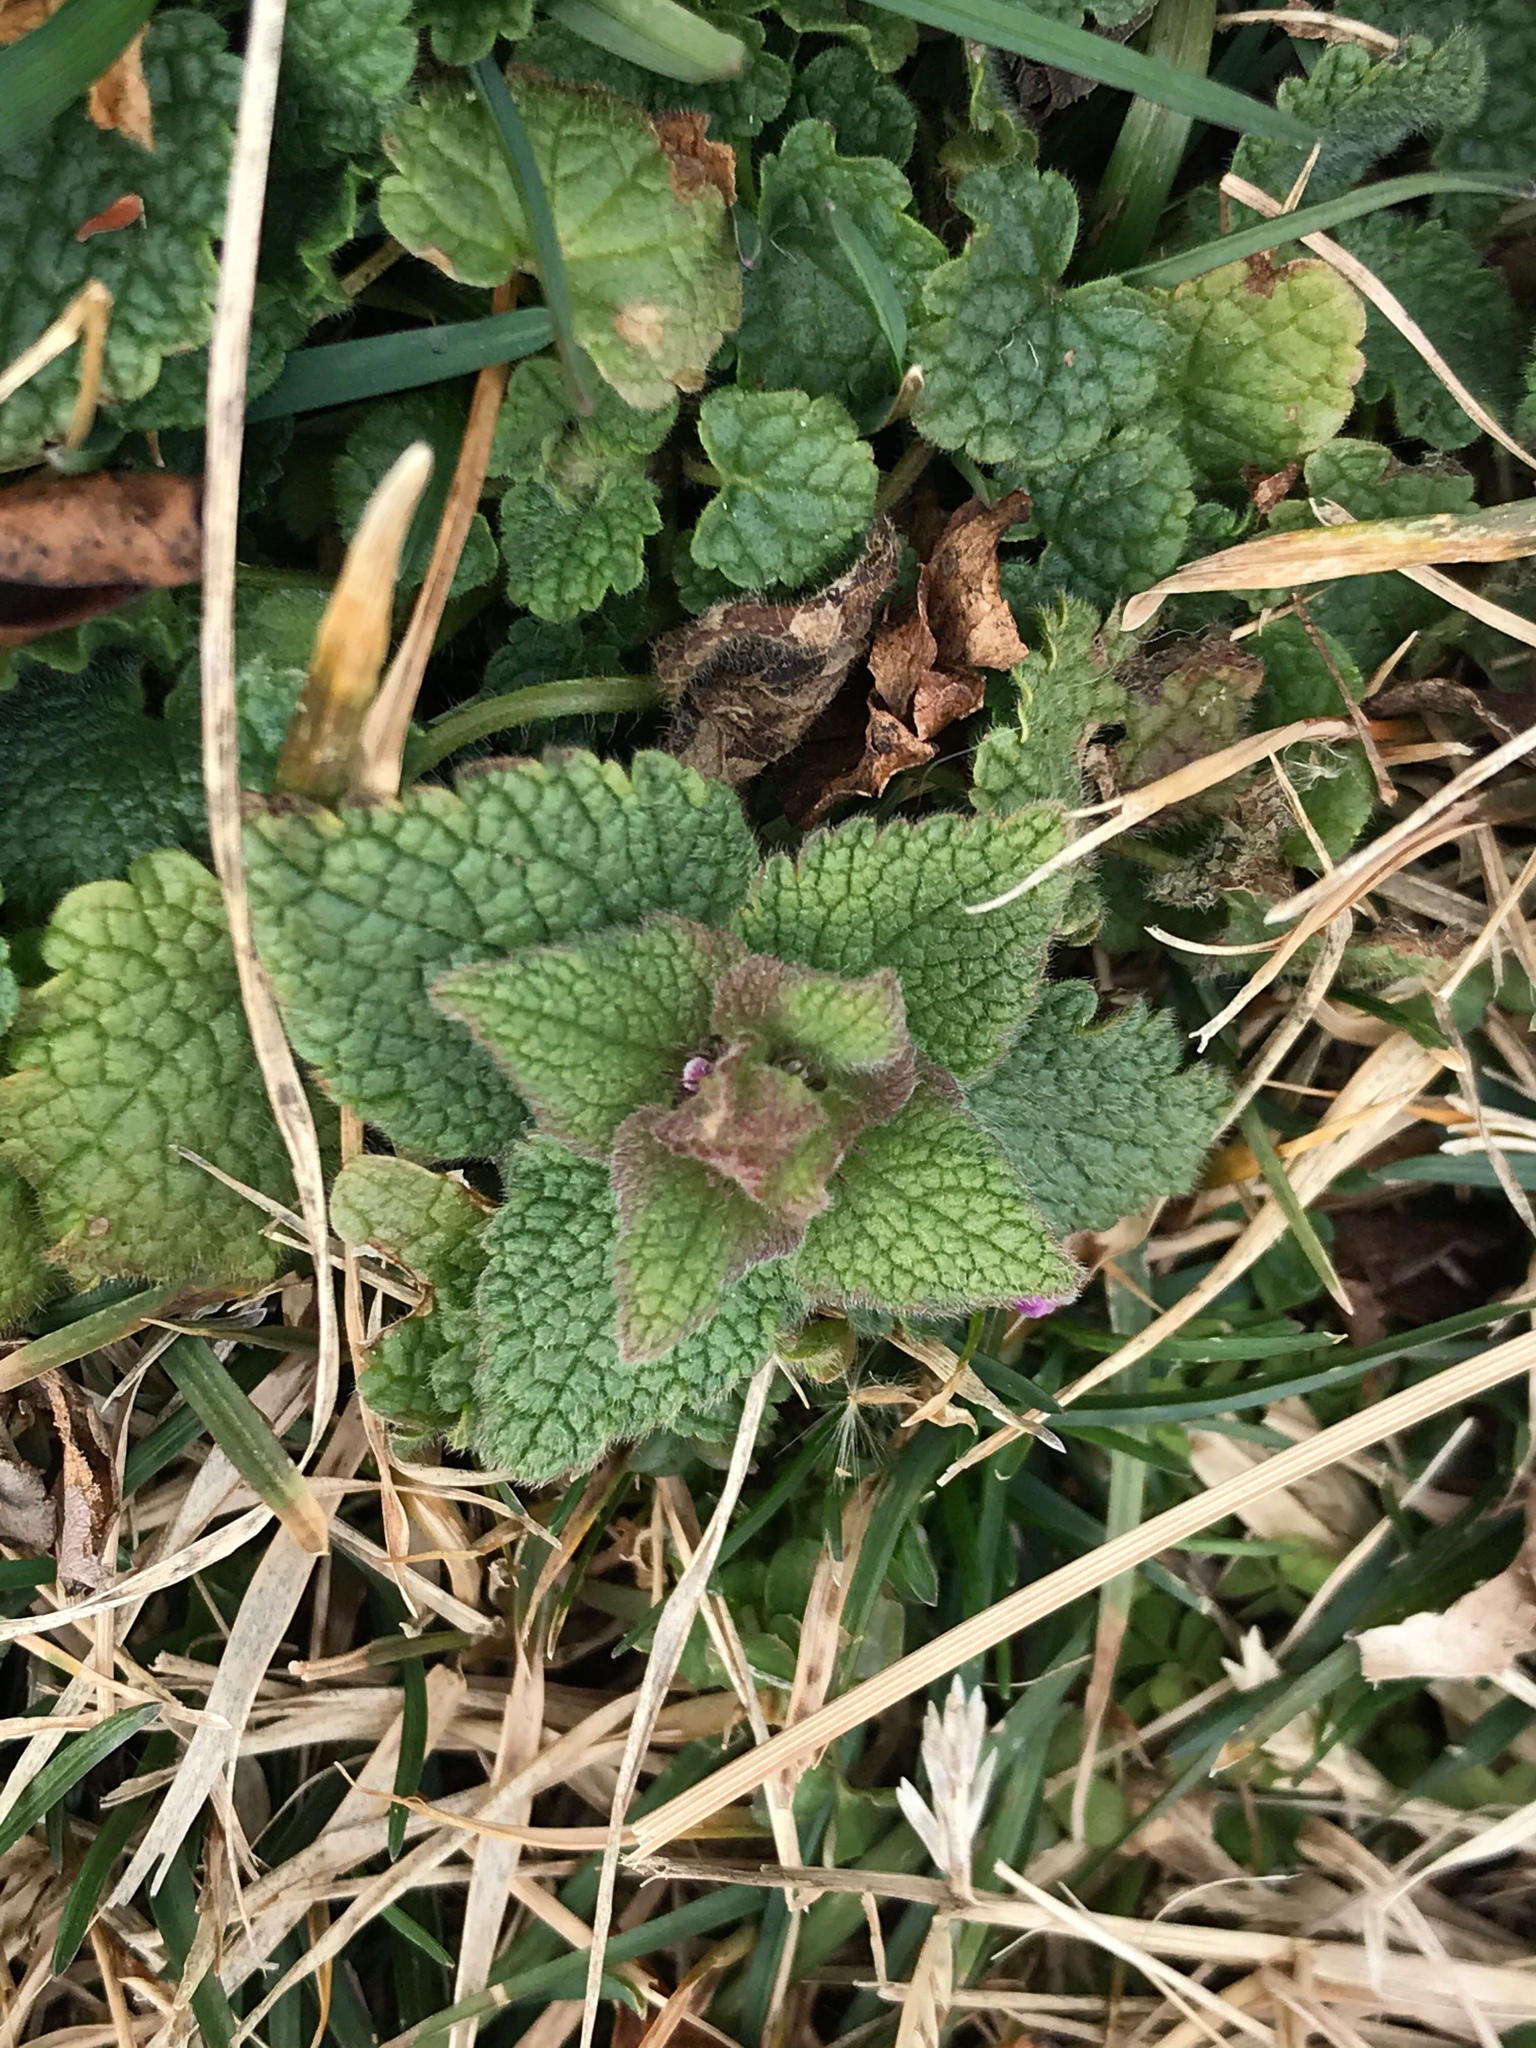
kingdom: Plantae
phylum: Tracheophyta
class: Magnoliopsida
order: Lamiales
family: Lamiaceae
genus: Lamium
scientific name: Lamium purpureum
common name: Red dead-nettle
